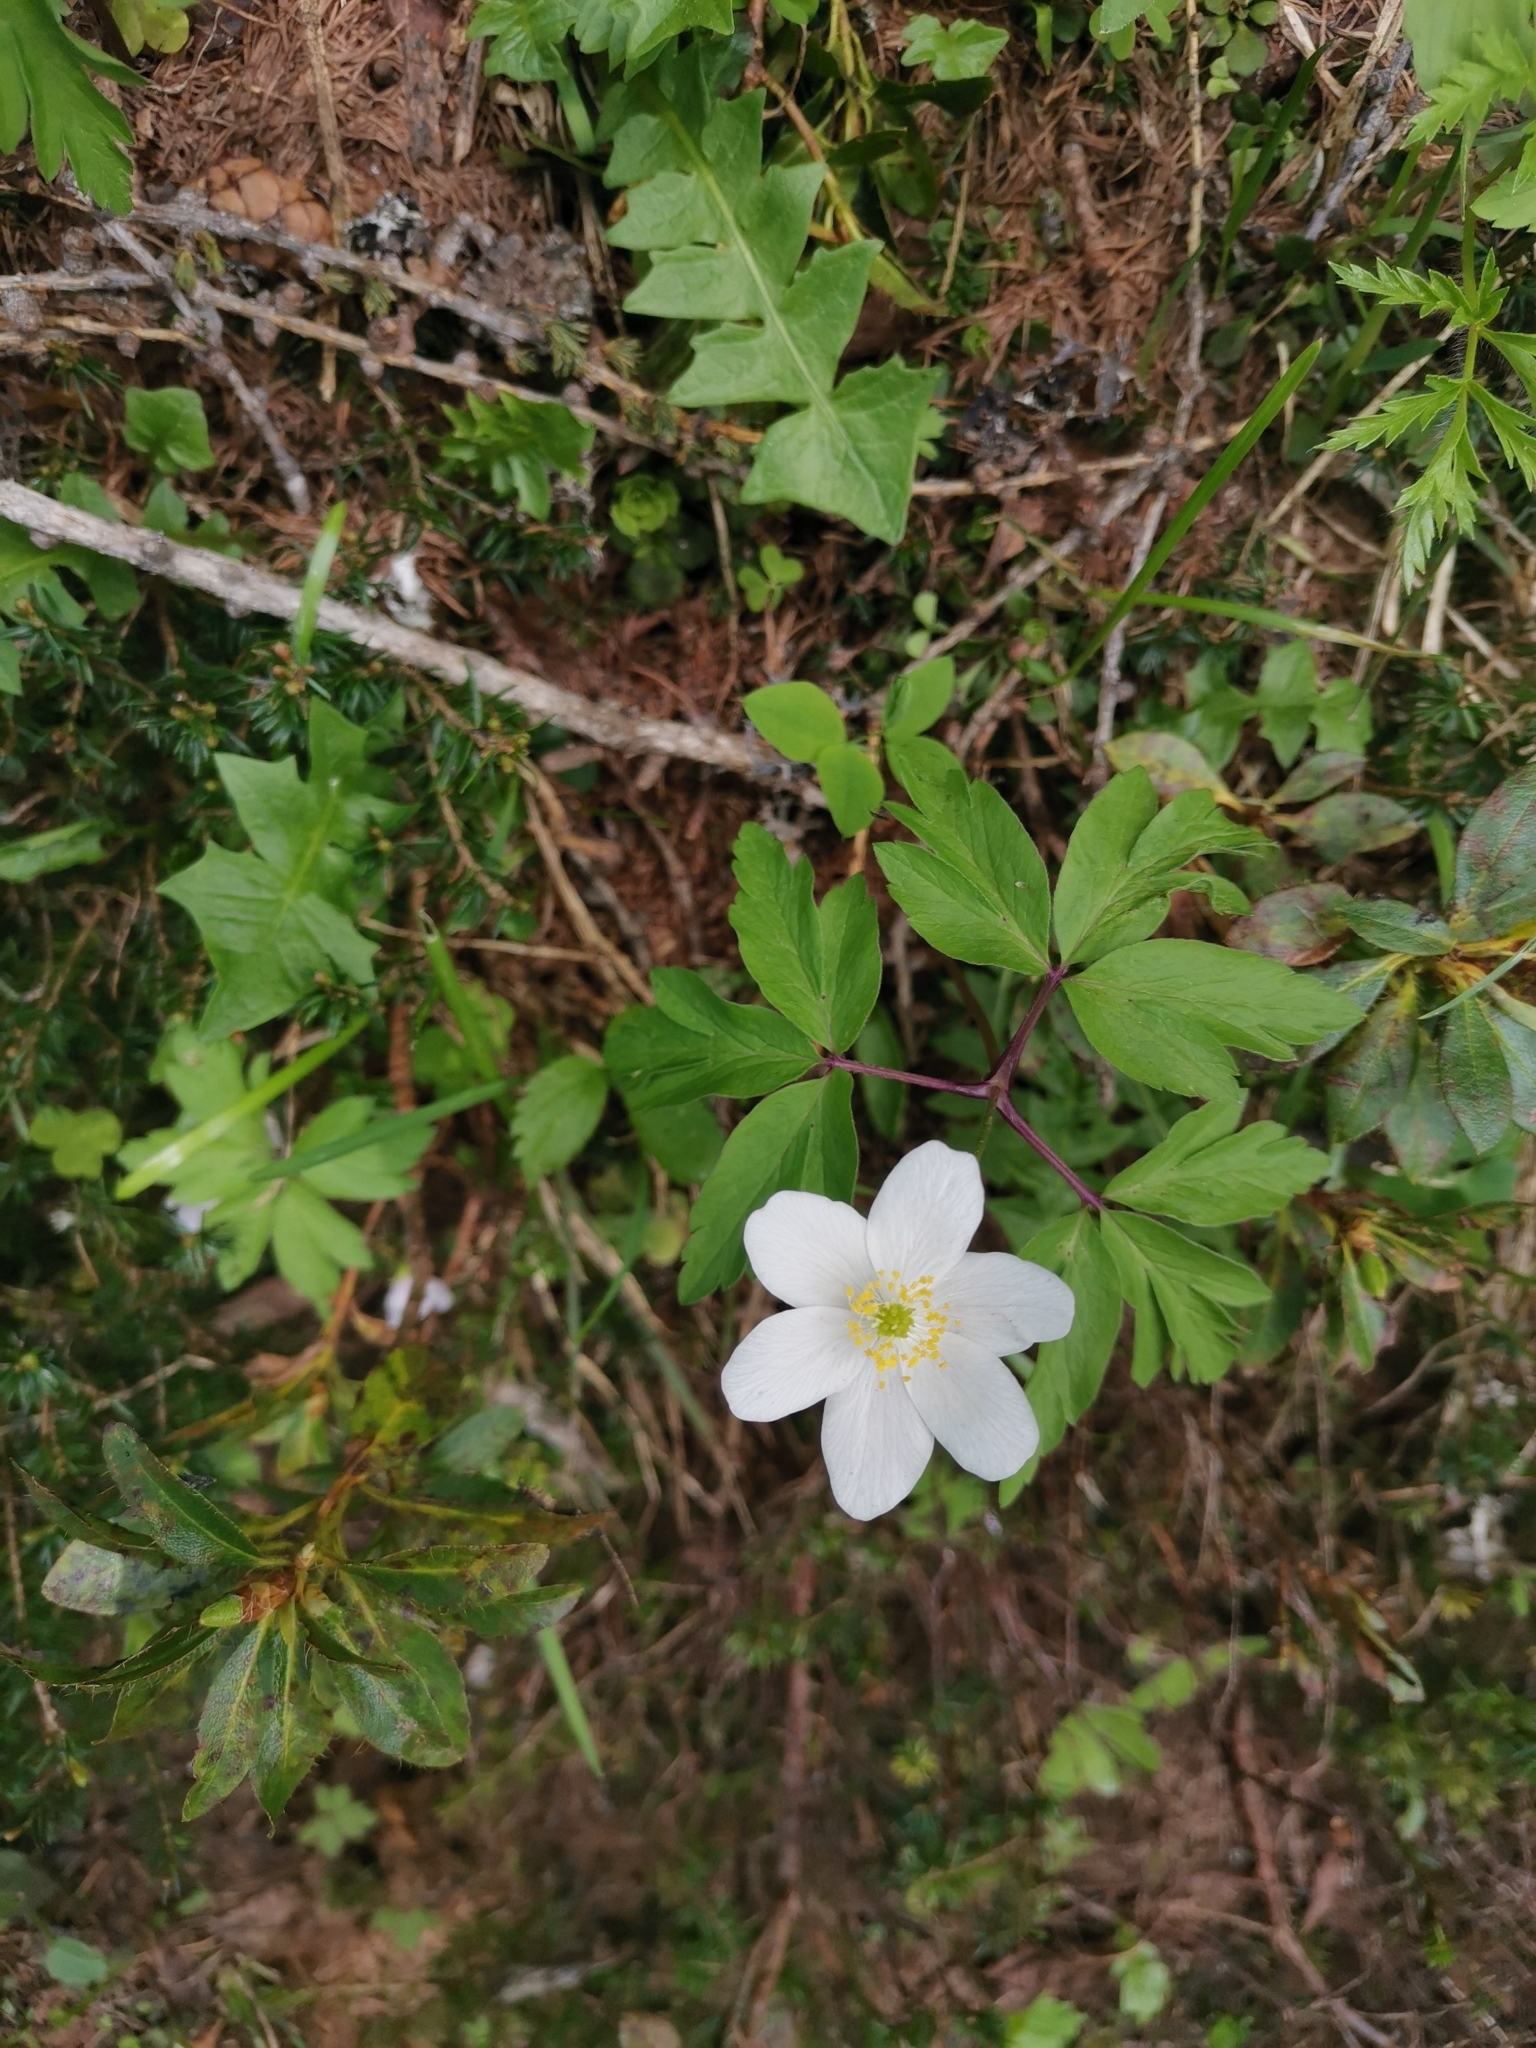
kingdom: Plantae
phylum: Tracheophyta
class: Magnoliopsida
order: Ranunculales
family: Ranunculaceae
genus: Anemone
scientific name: Anemone nemorosa
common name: Wood anemone
